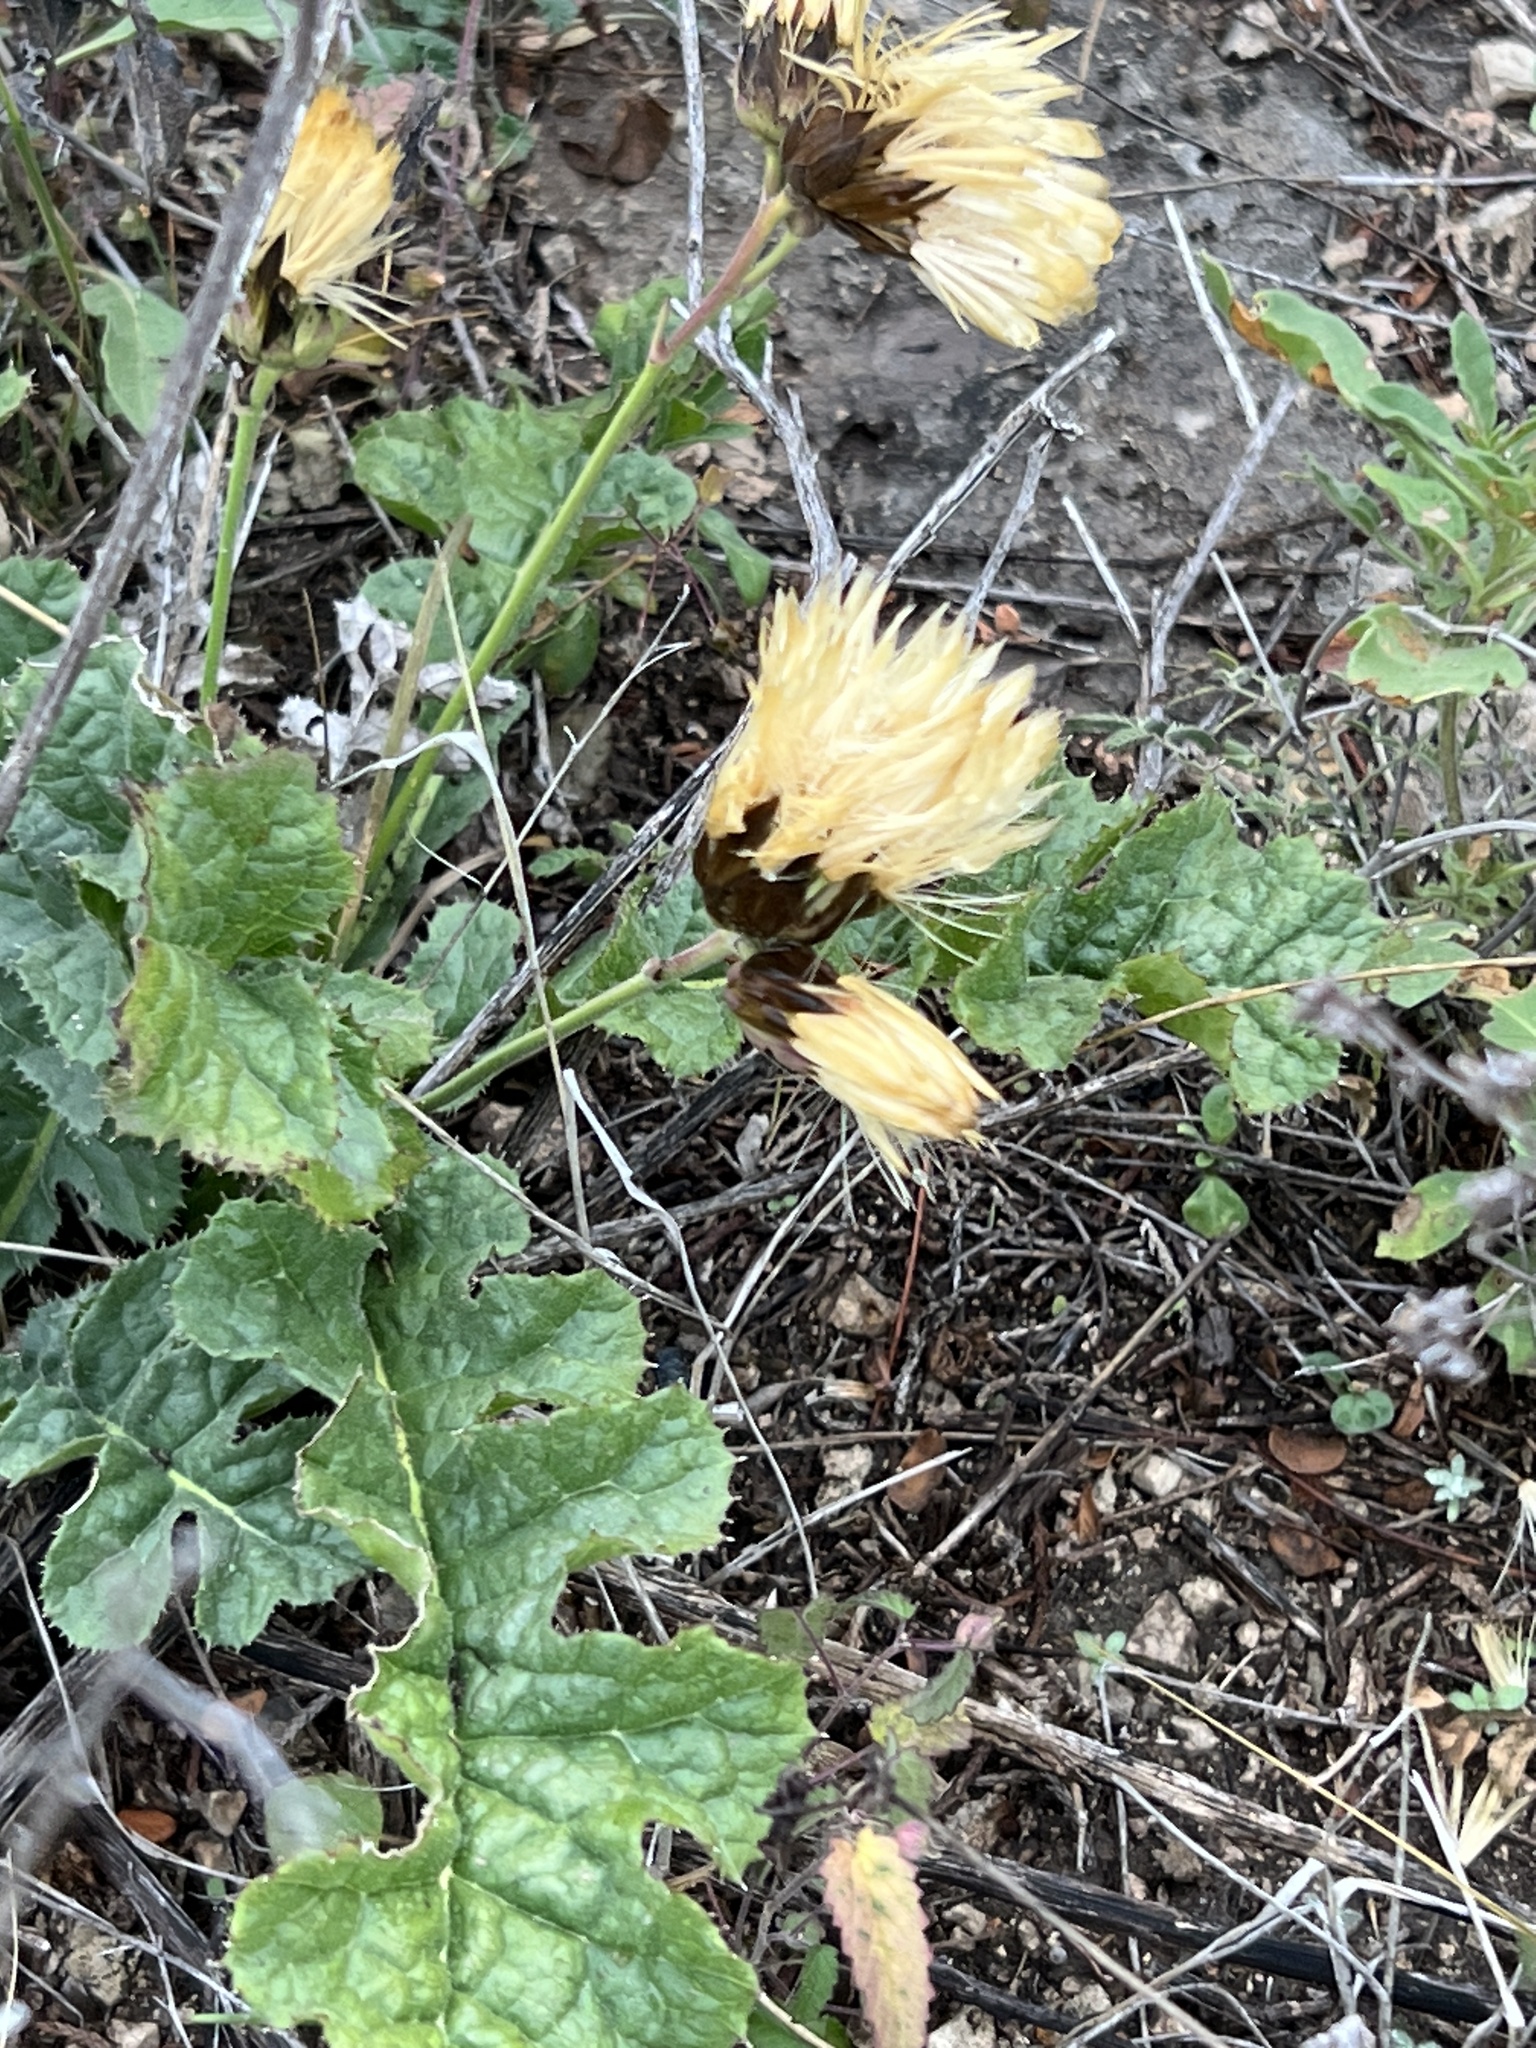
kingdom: Plantae
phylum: Tracheophyta
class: Magnoliopsida
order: Asterales
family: Asteraceae
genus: Acourtia
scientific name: Acourtia runcinata
